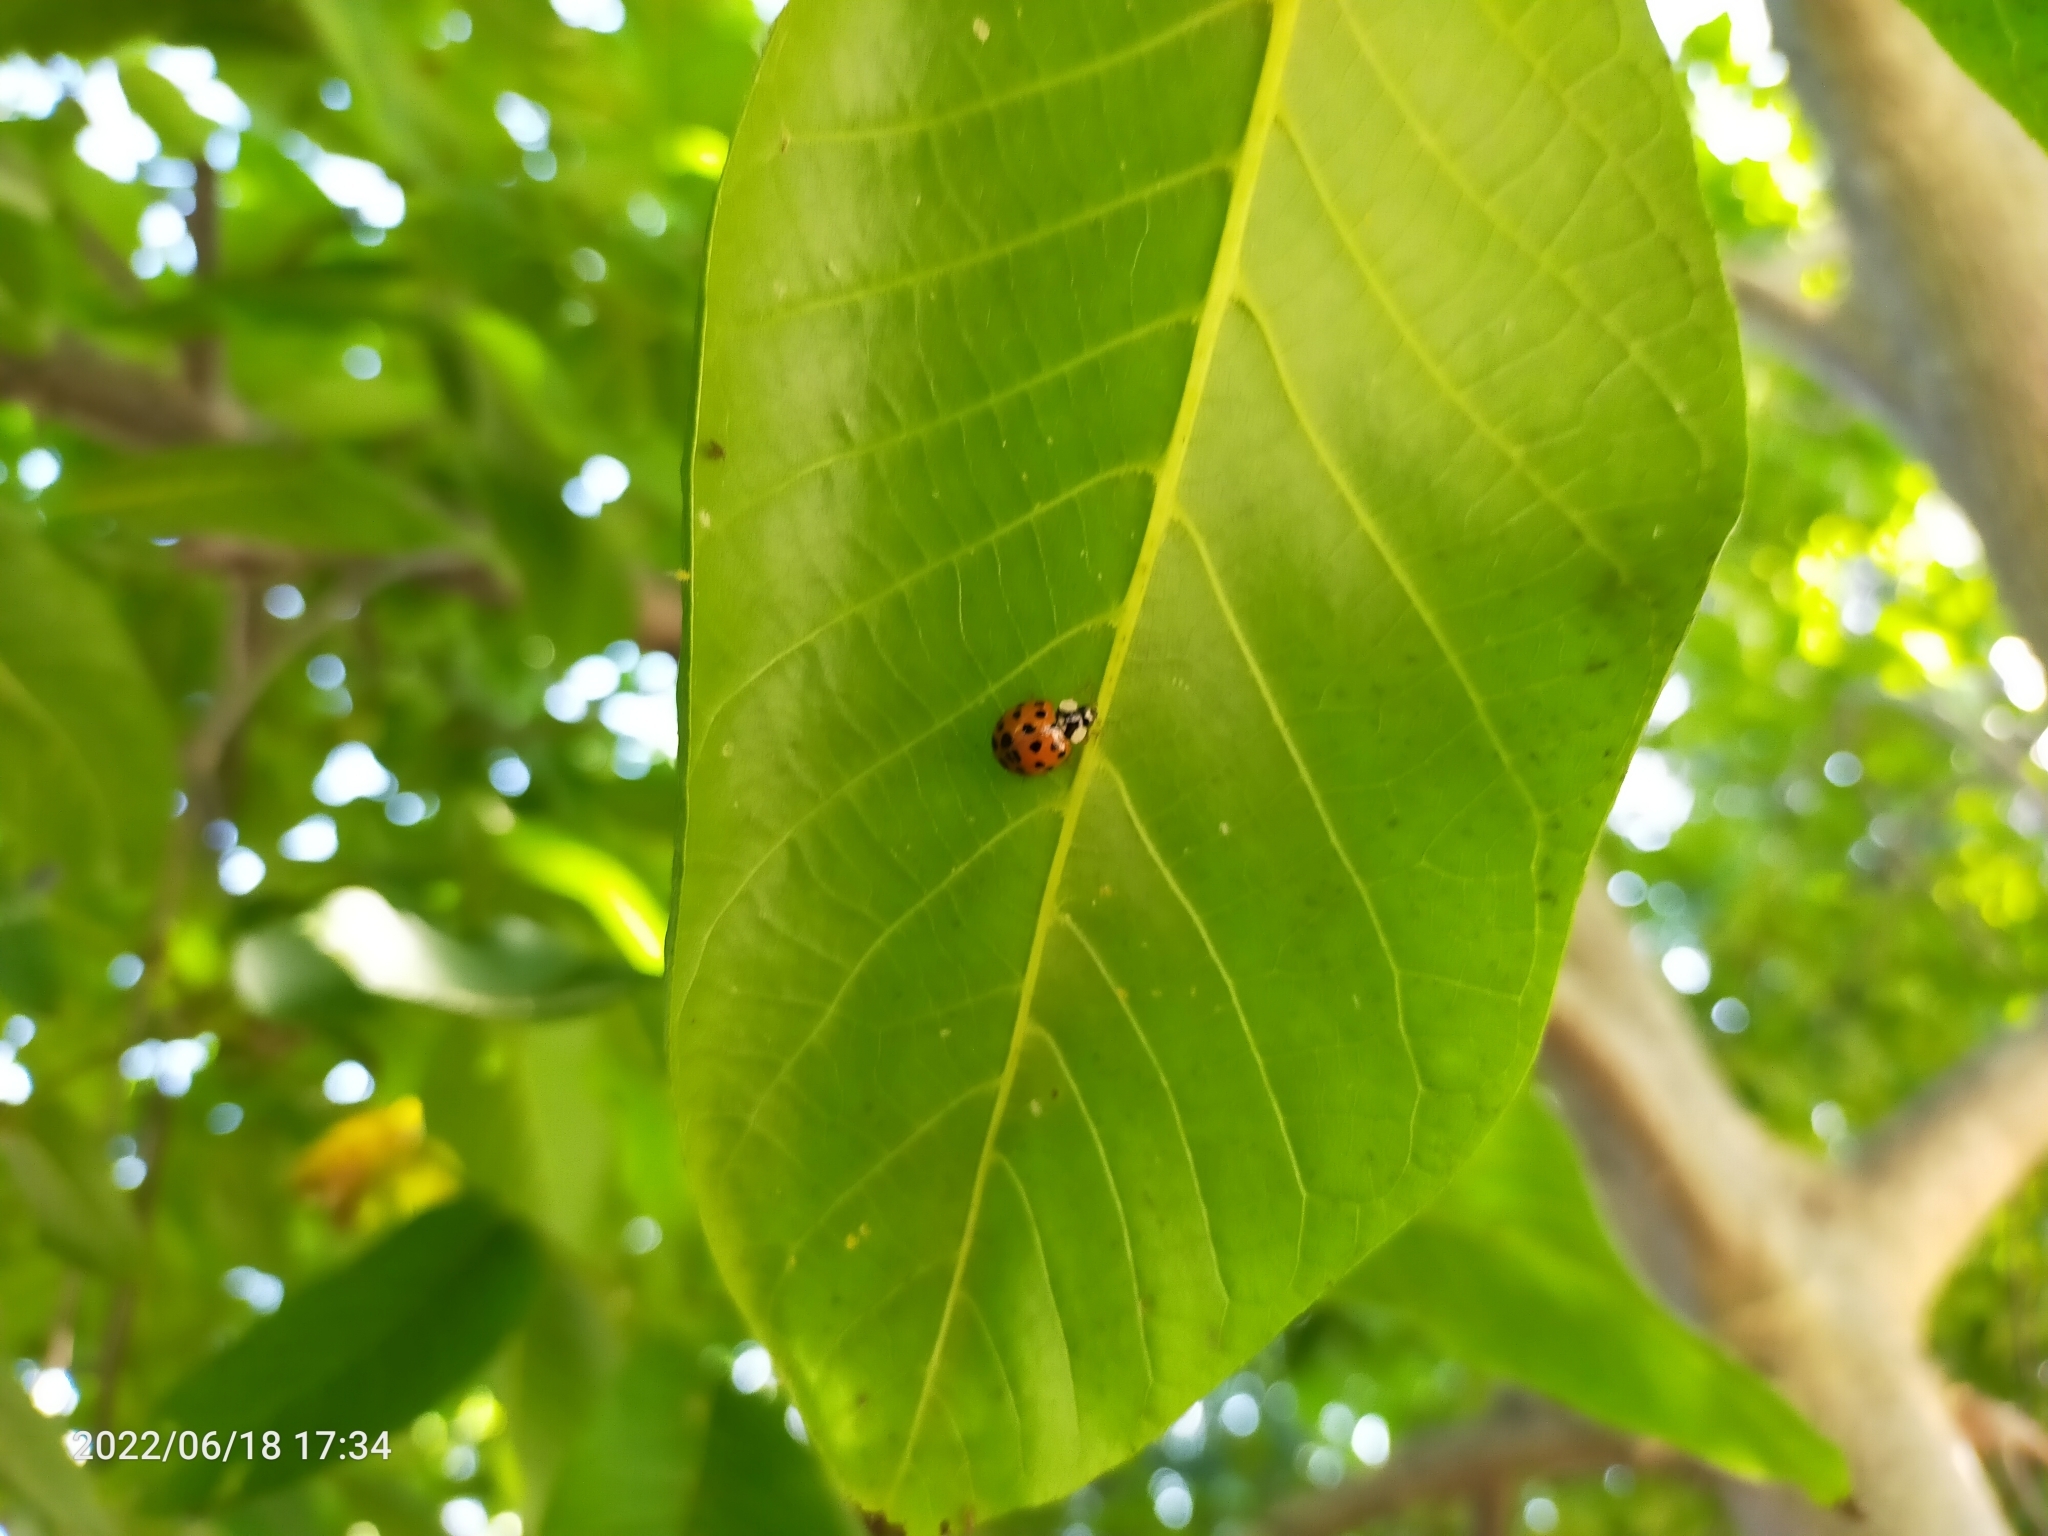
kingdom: Animalia
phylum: Arthropoda
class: Insecta
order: Coleoptera
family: Coccinellidae
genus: Harmonia
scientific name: Harmonia axyridis
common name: Harlequin ladybird
